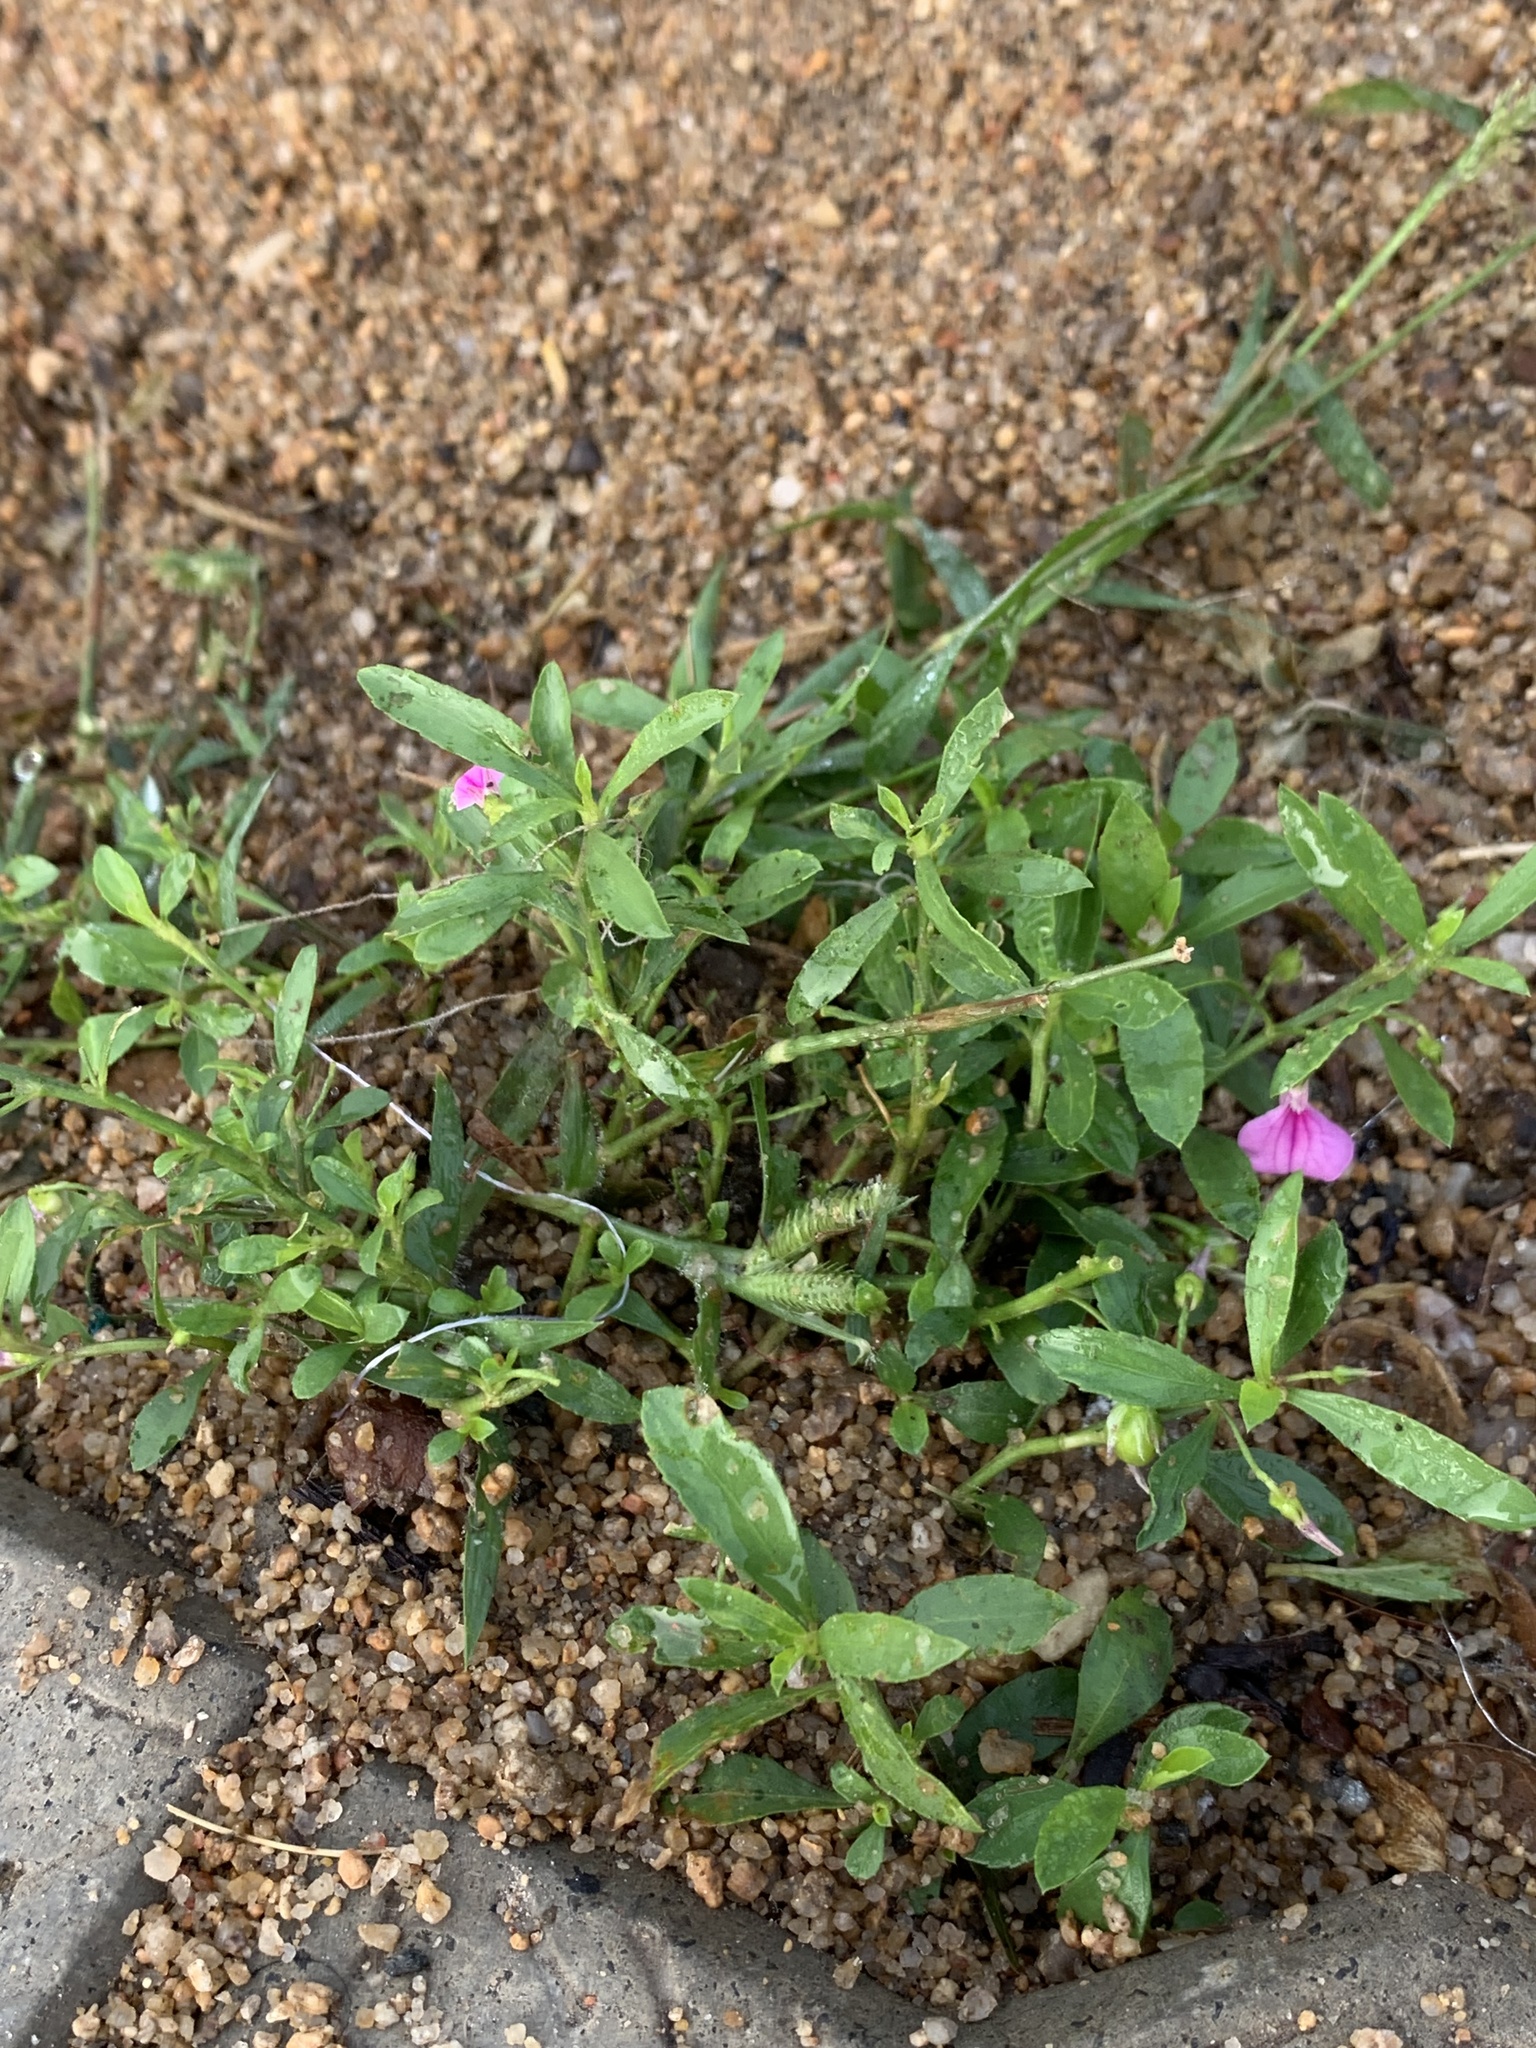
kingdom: Plantae
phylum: Tracheophyta
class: Magnoliopsida
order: Malpighiales
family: Violaceae
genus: Pigea
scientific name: Pigea enneasperma
